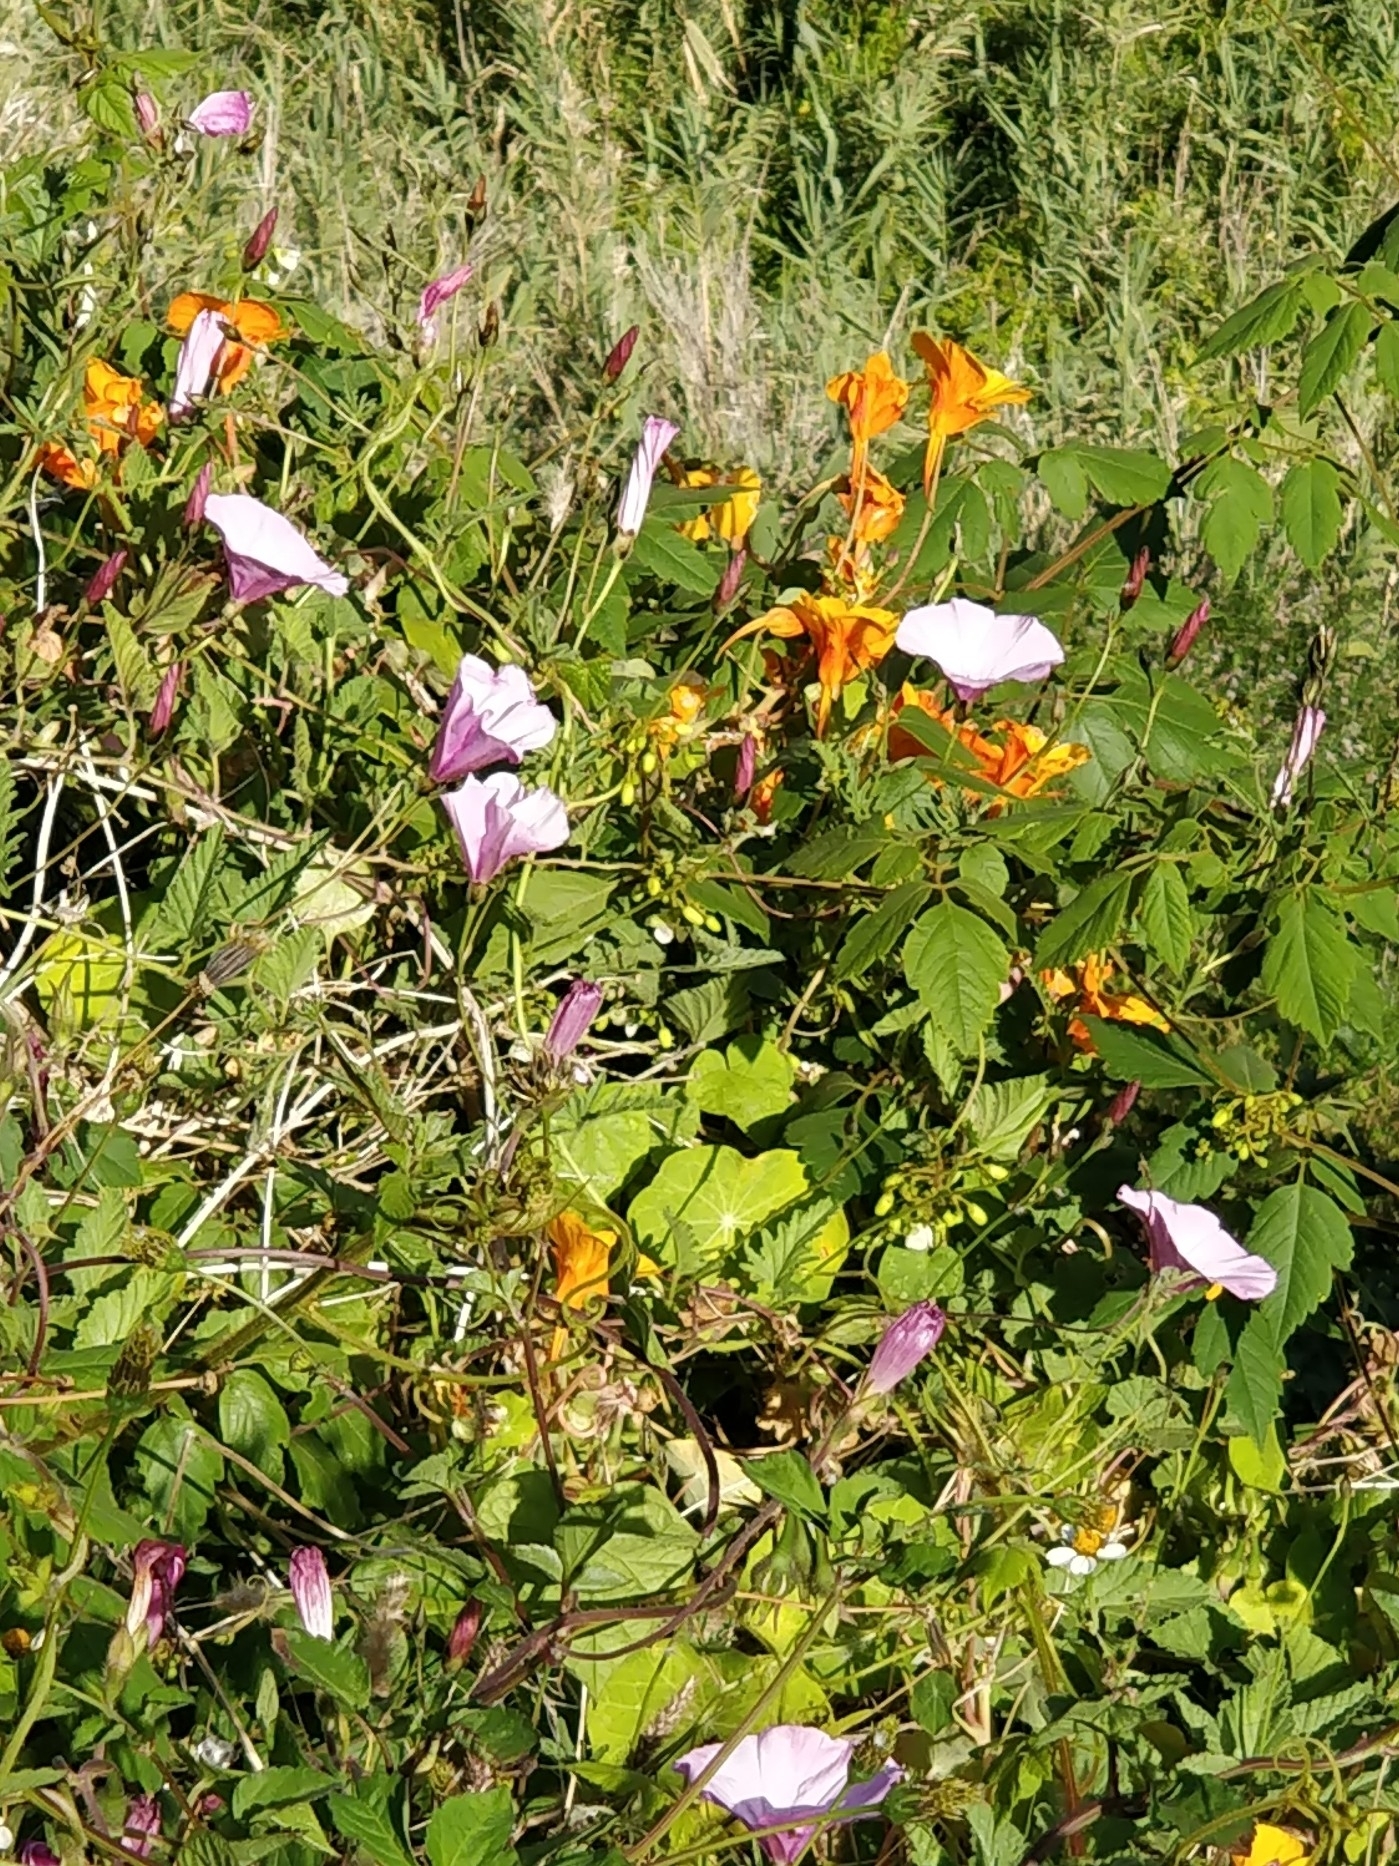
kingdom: Plantae
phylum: Tracheophyta
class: Magnoliopsida
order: Solanales
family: Convolvulaceae
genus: Convolvulus
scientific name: Convolvulus althaeoides
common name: Mallow bindweed
